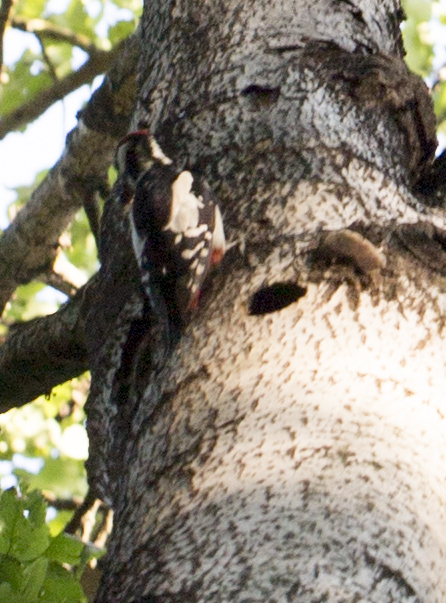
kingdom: Animalia
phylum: Chordata
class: Aves
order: Piciformes
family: Picidae
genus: Dendrocopos
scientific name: Dendrocopos major
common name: Great spotted woodpecker
